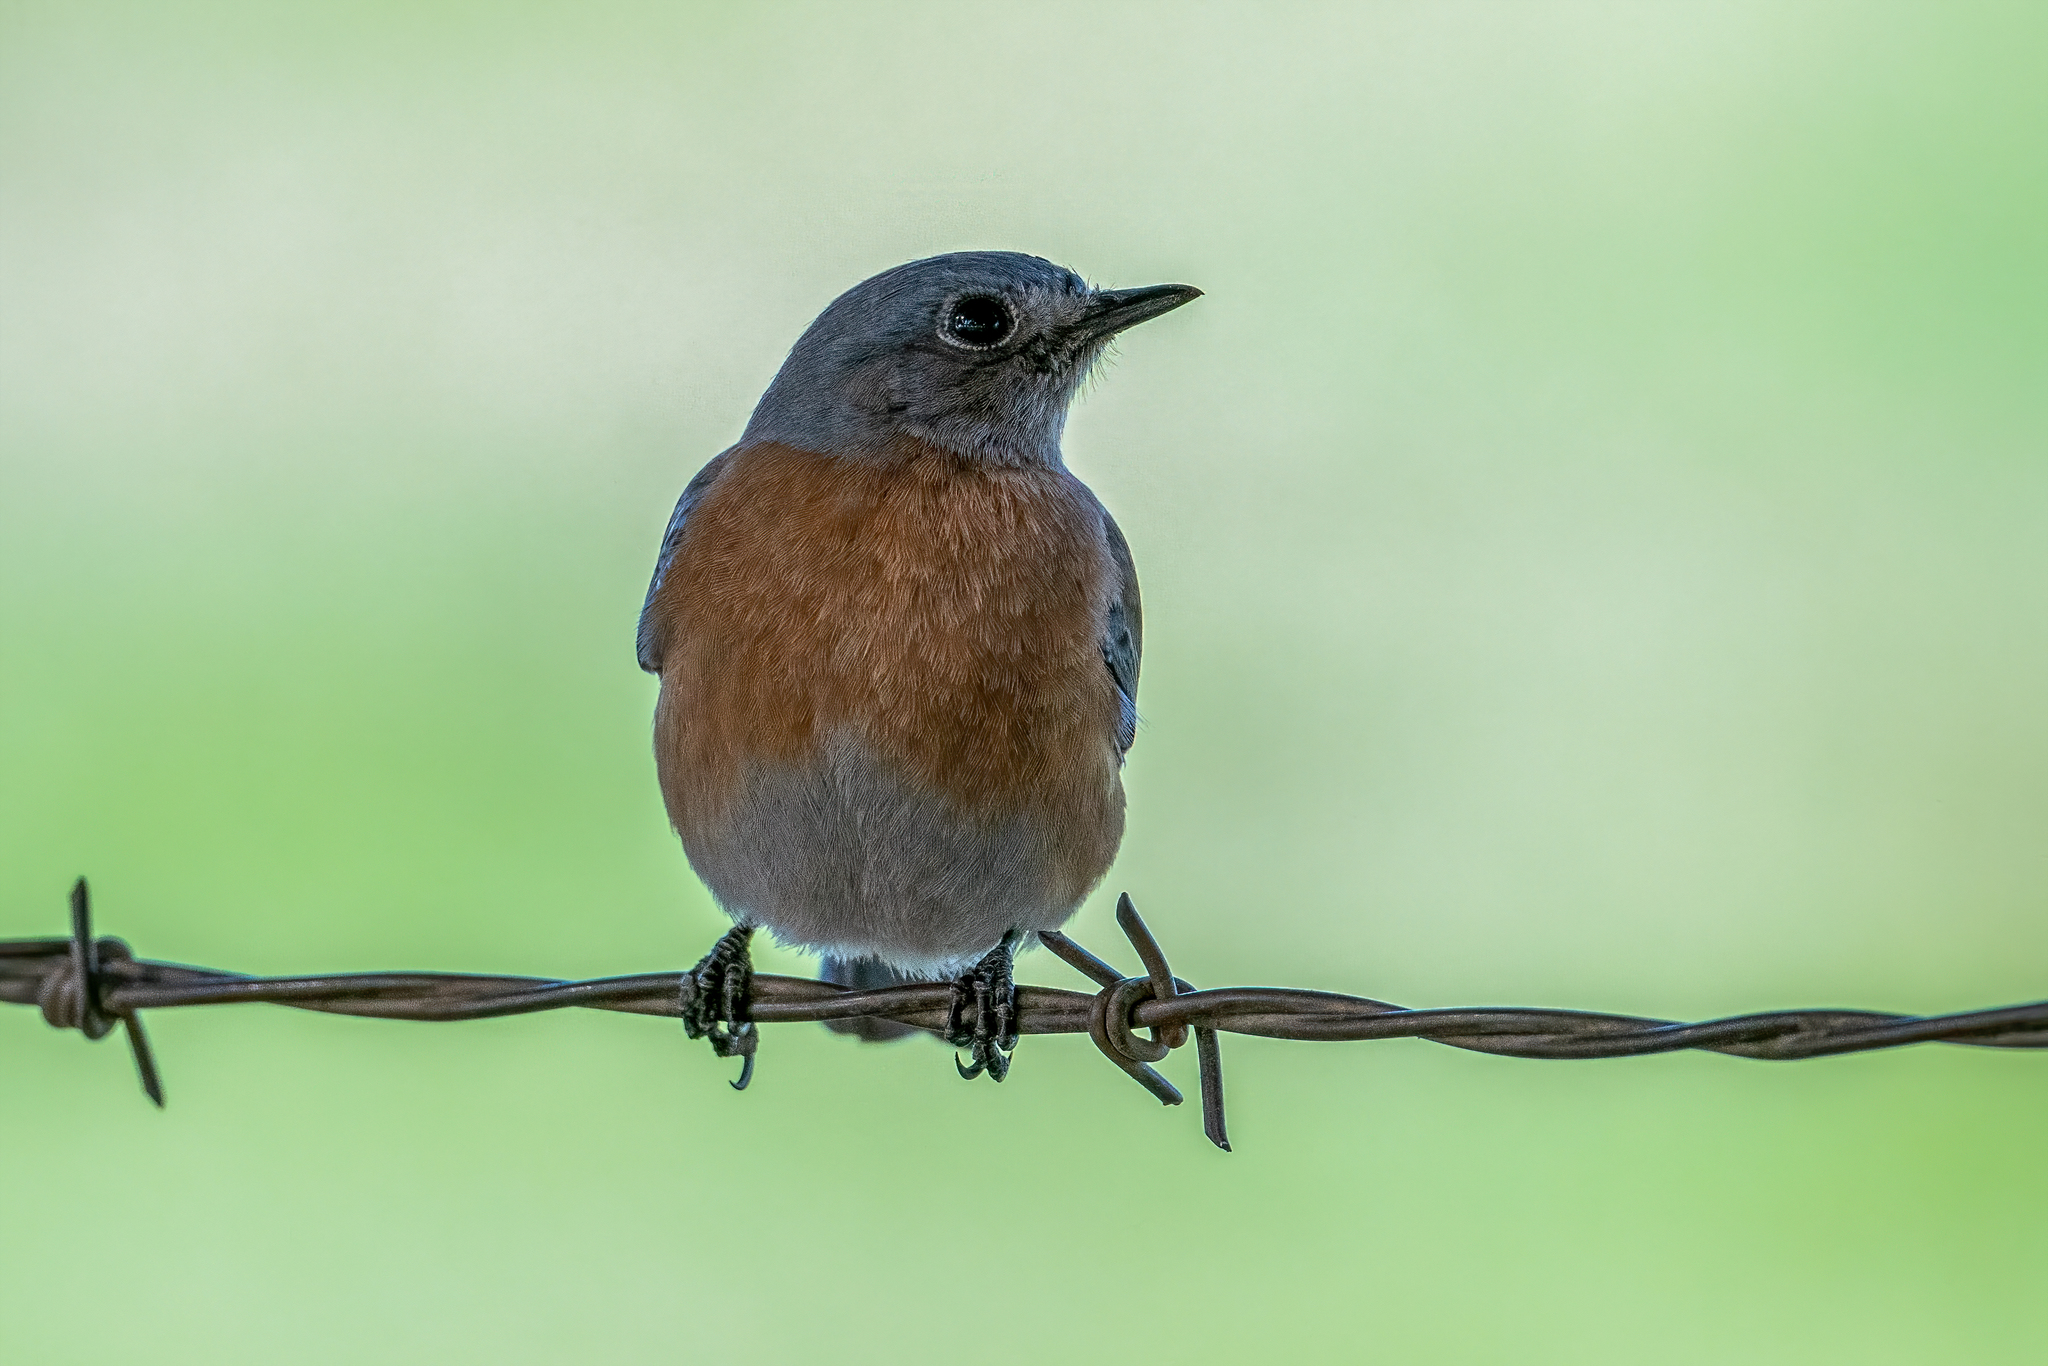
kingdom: Animalia
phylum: Chordata
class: Aves
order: Passeriformes
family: Turdidae
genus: Sialia
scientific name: Sialia mexicana
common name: Western bluebird
